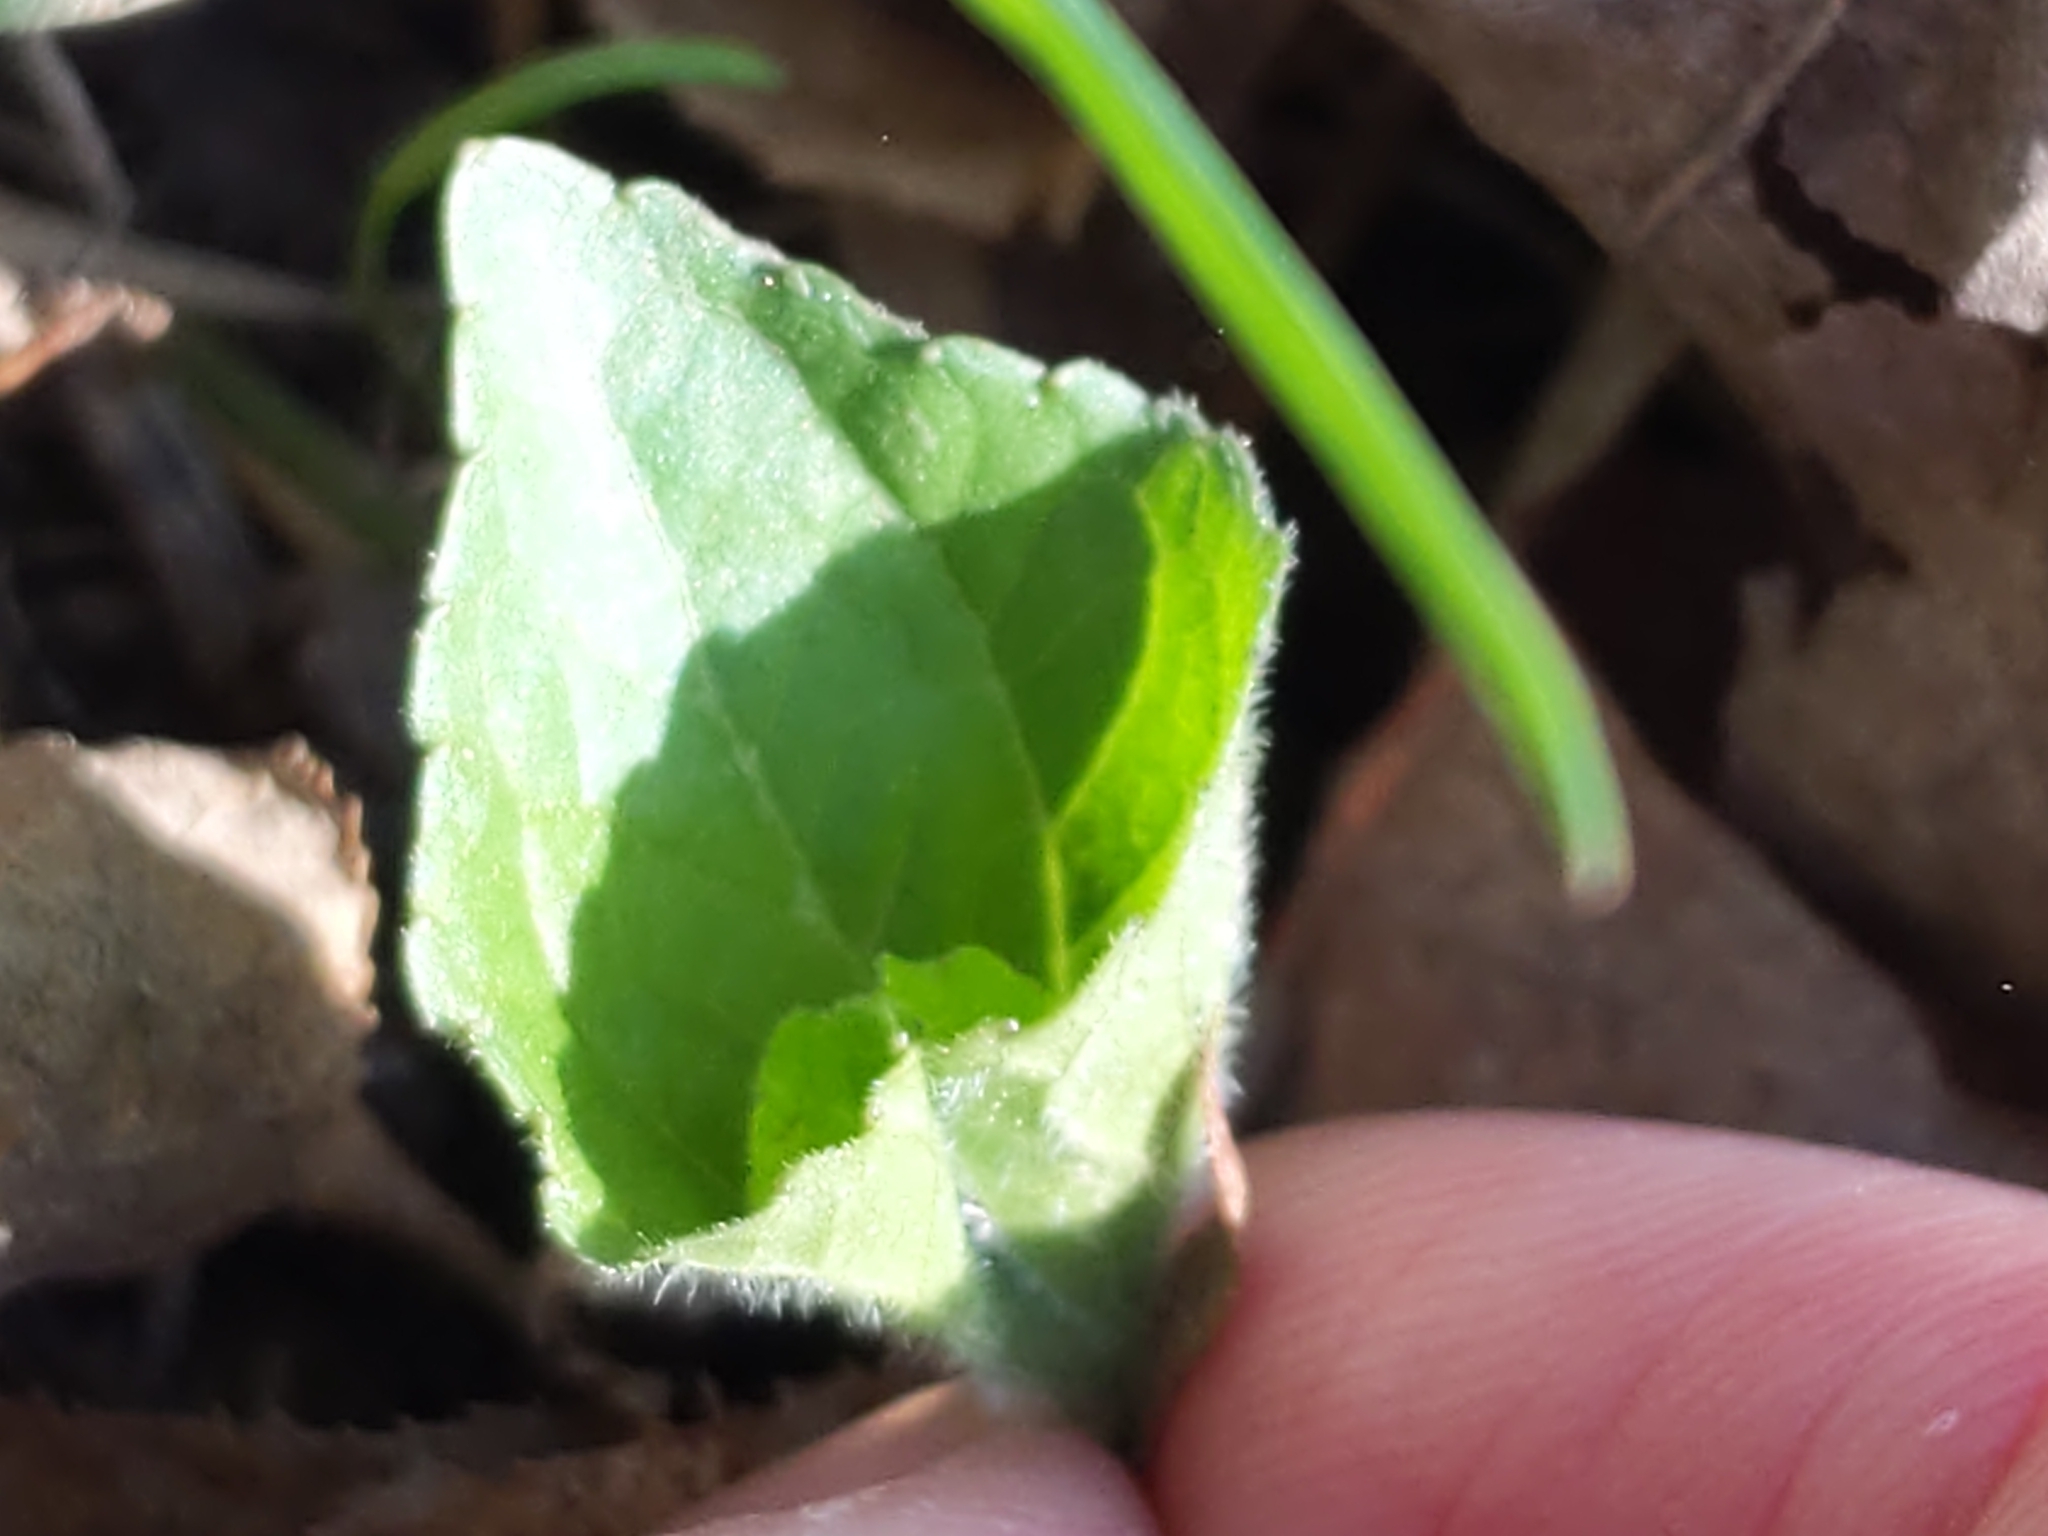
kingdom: Plantae
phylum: Tracheophyta
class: Magnoliopsida
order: Malpighiales
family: Violaceae
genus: Viola
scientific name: Viola eriocarpa
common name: Smooth yellow violet
